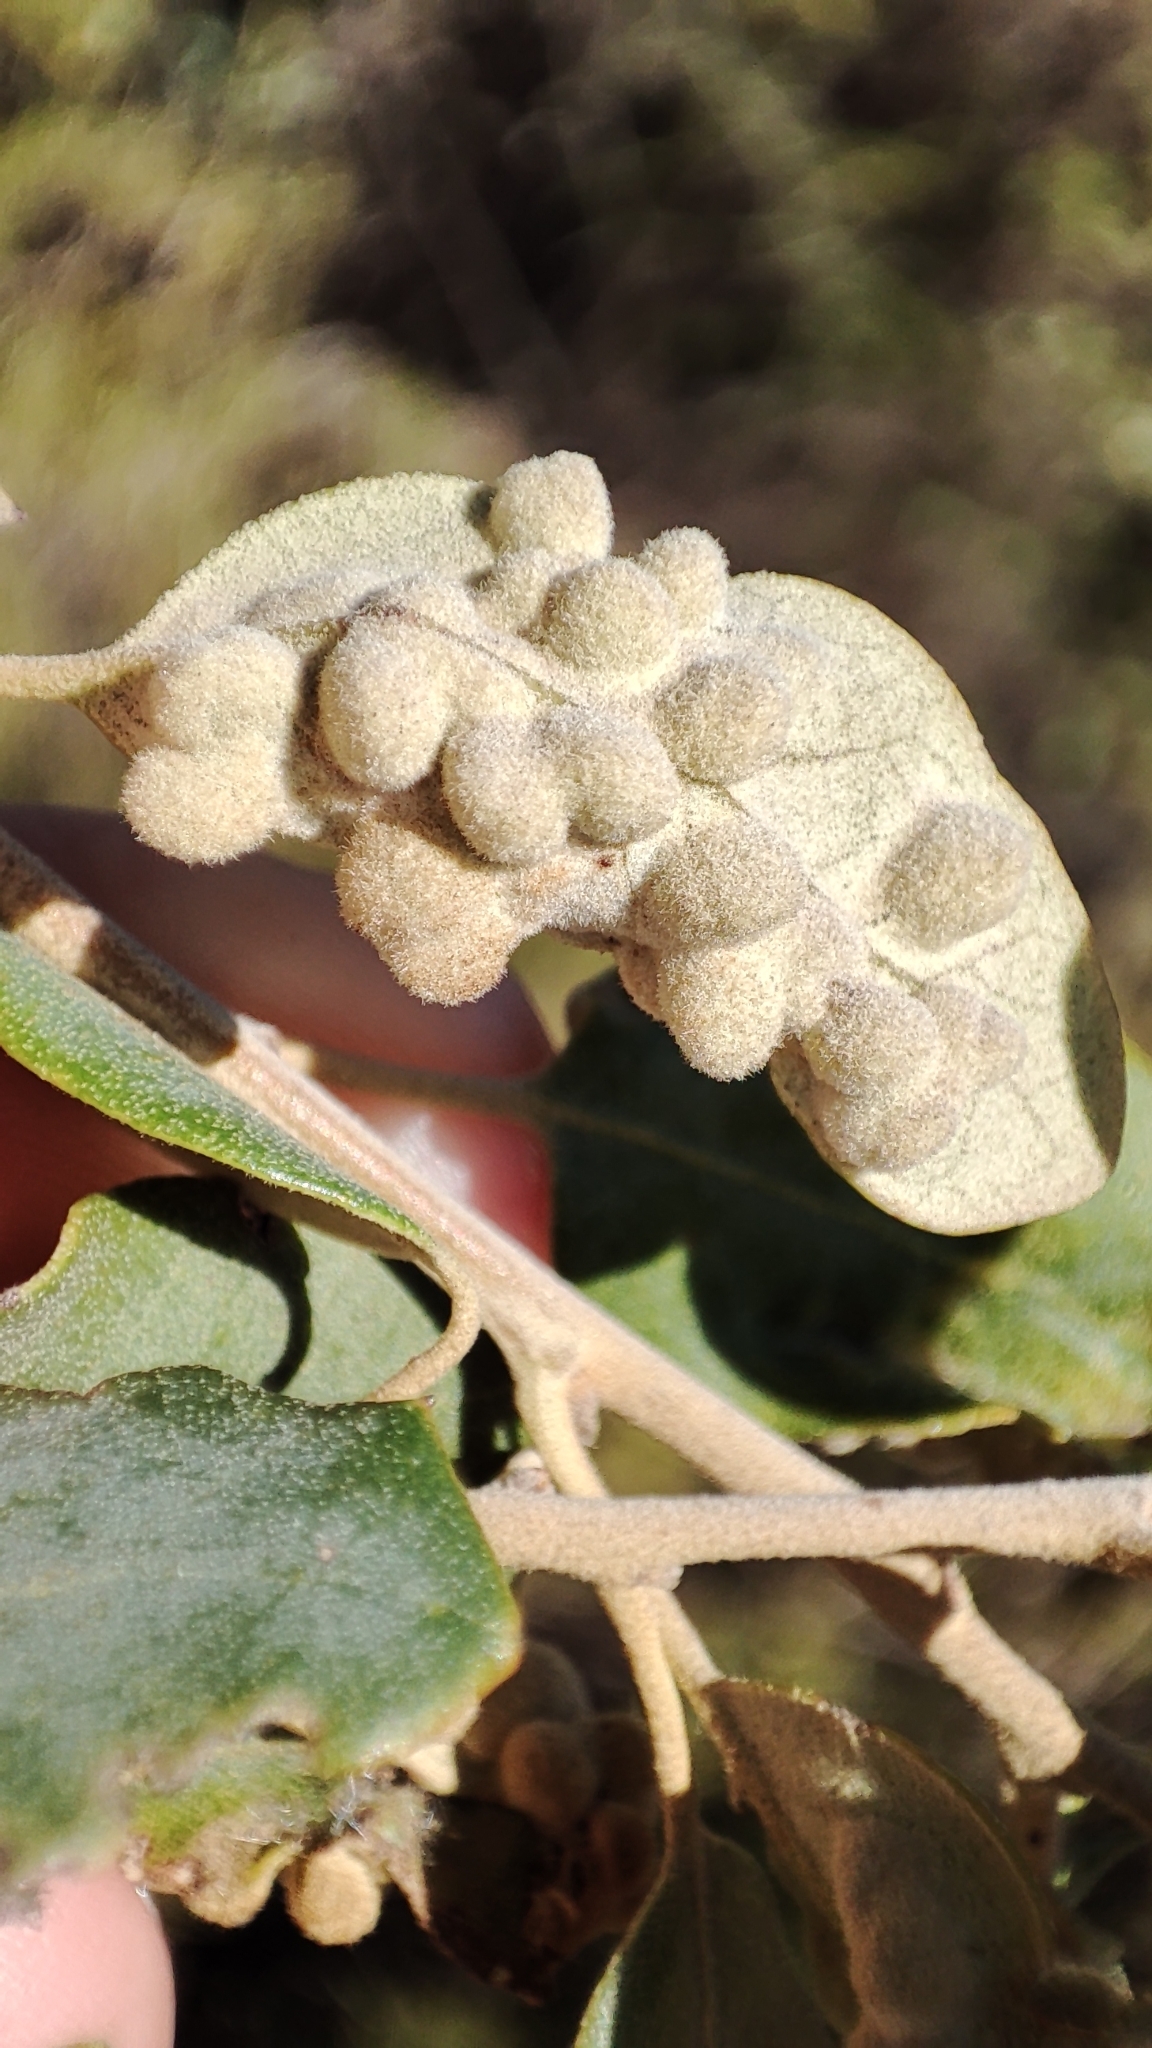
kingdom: Animalia
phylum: Arthropoda
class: Insecta
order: Diptera
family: Cecidomyiidae
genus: Dryomyia
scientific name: Dryomyia lichtensteinii
